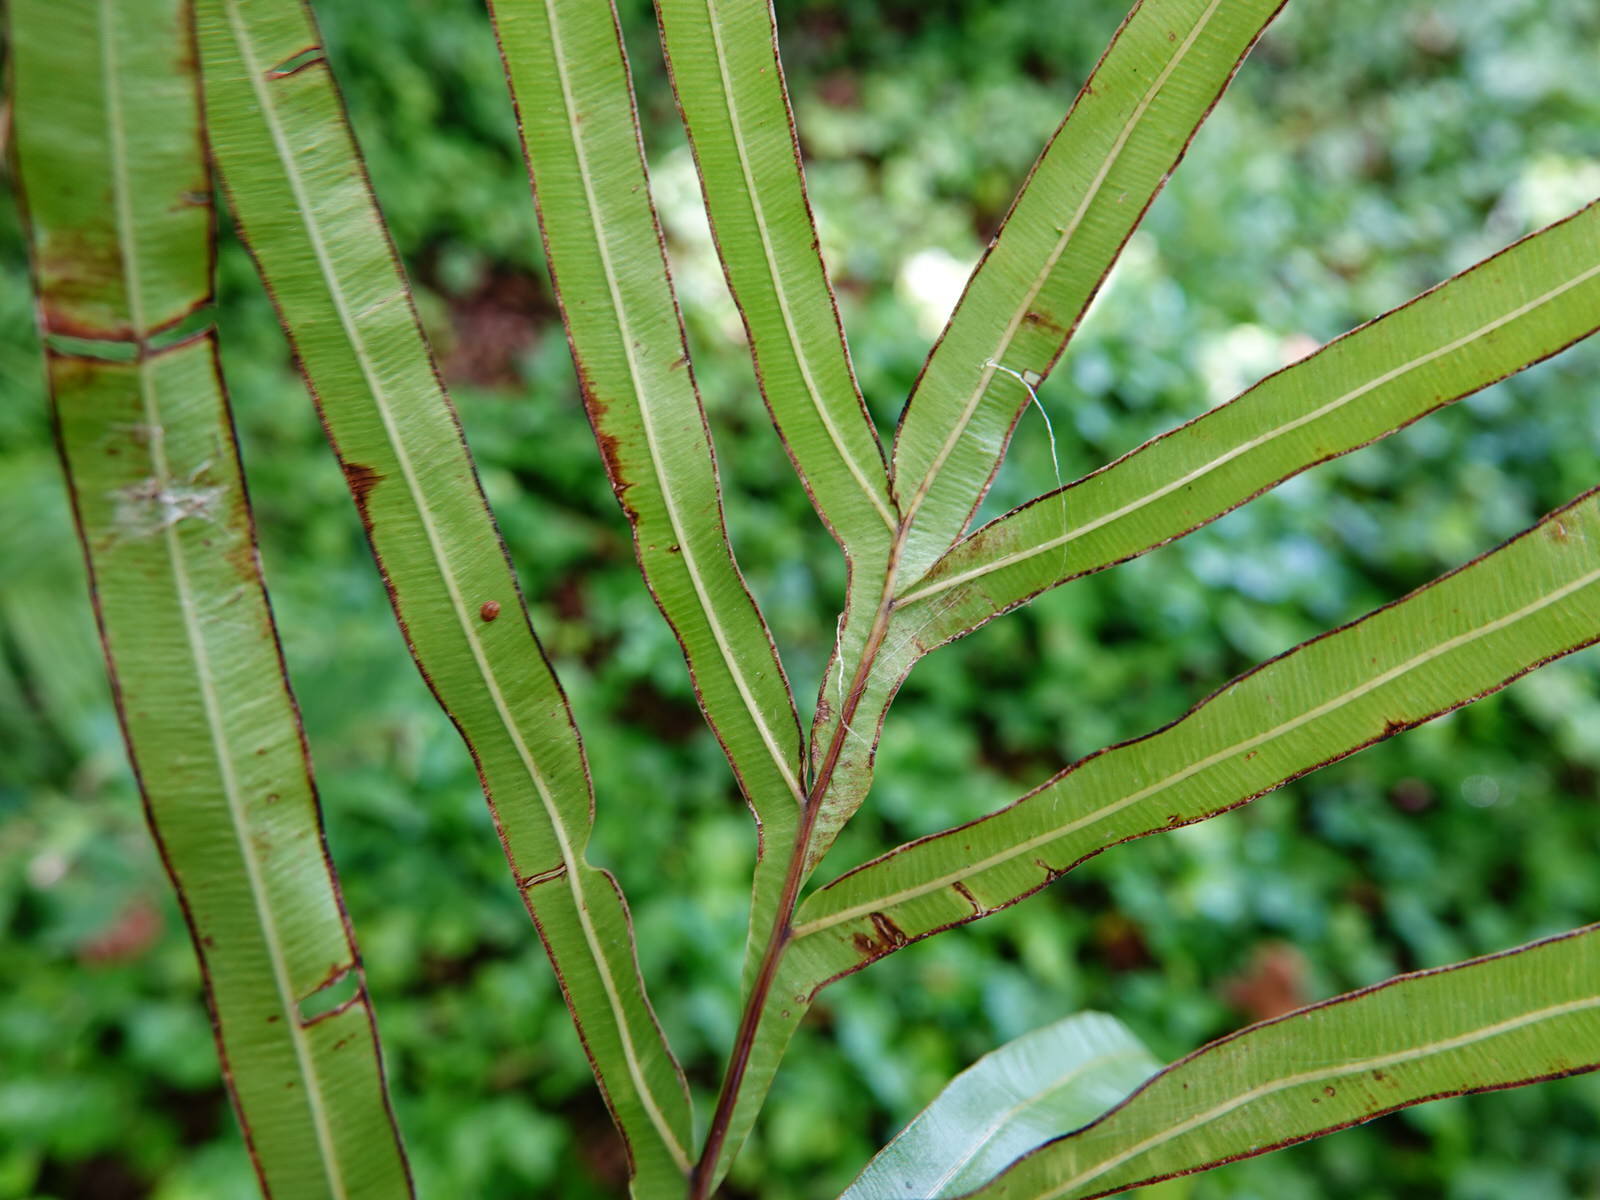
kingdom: Plantae
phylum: Tracheophyta
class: Polypodiopsida
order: Polypodiales
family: Pteridaceae
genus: Pteris
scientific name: Pteris cretica
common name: Ribbon fern
